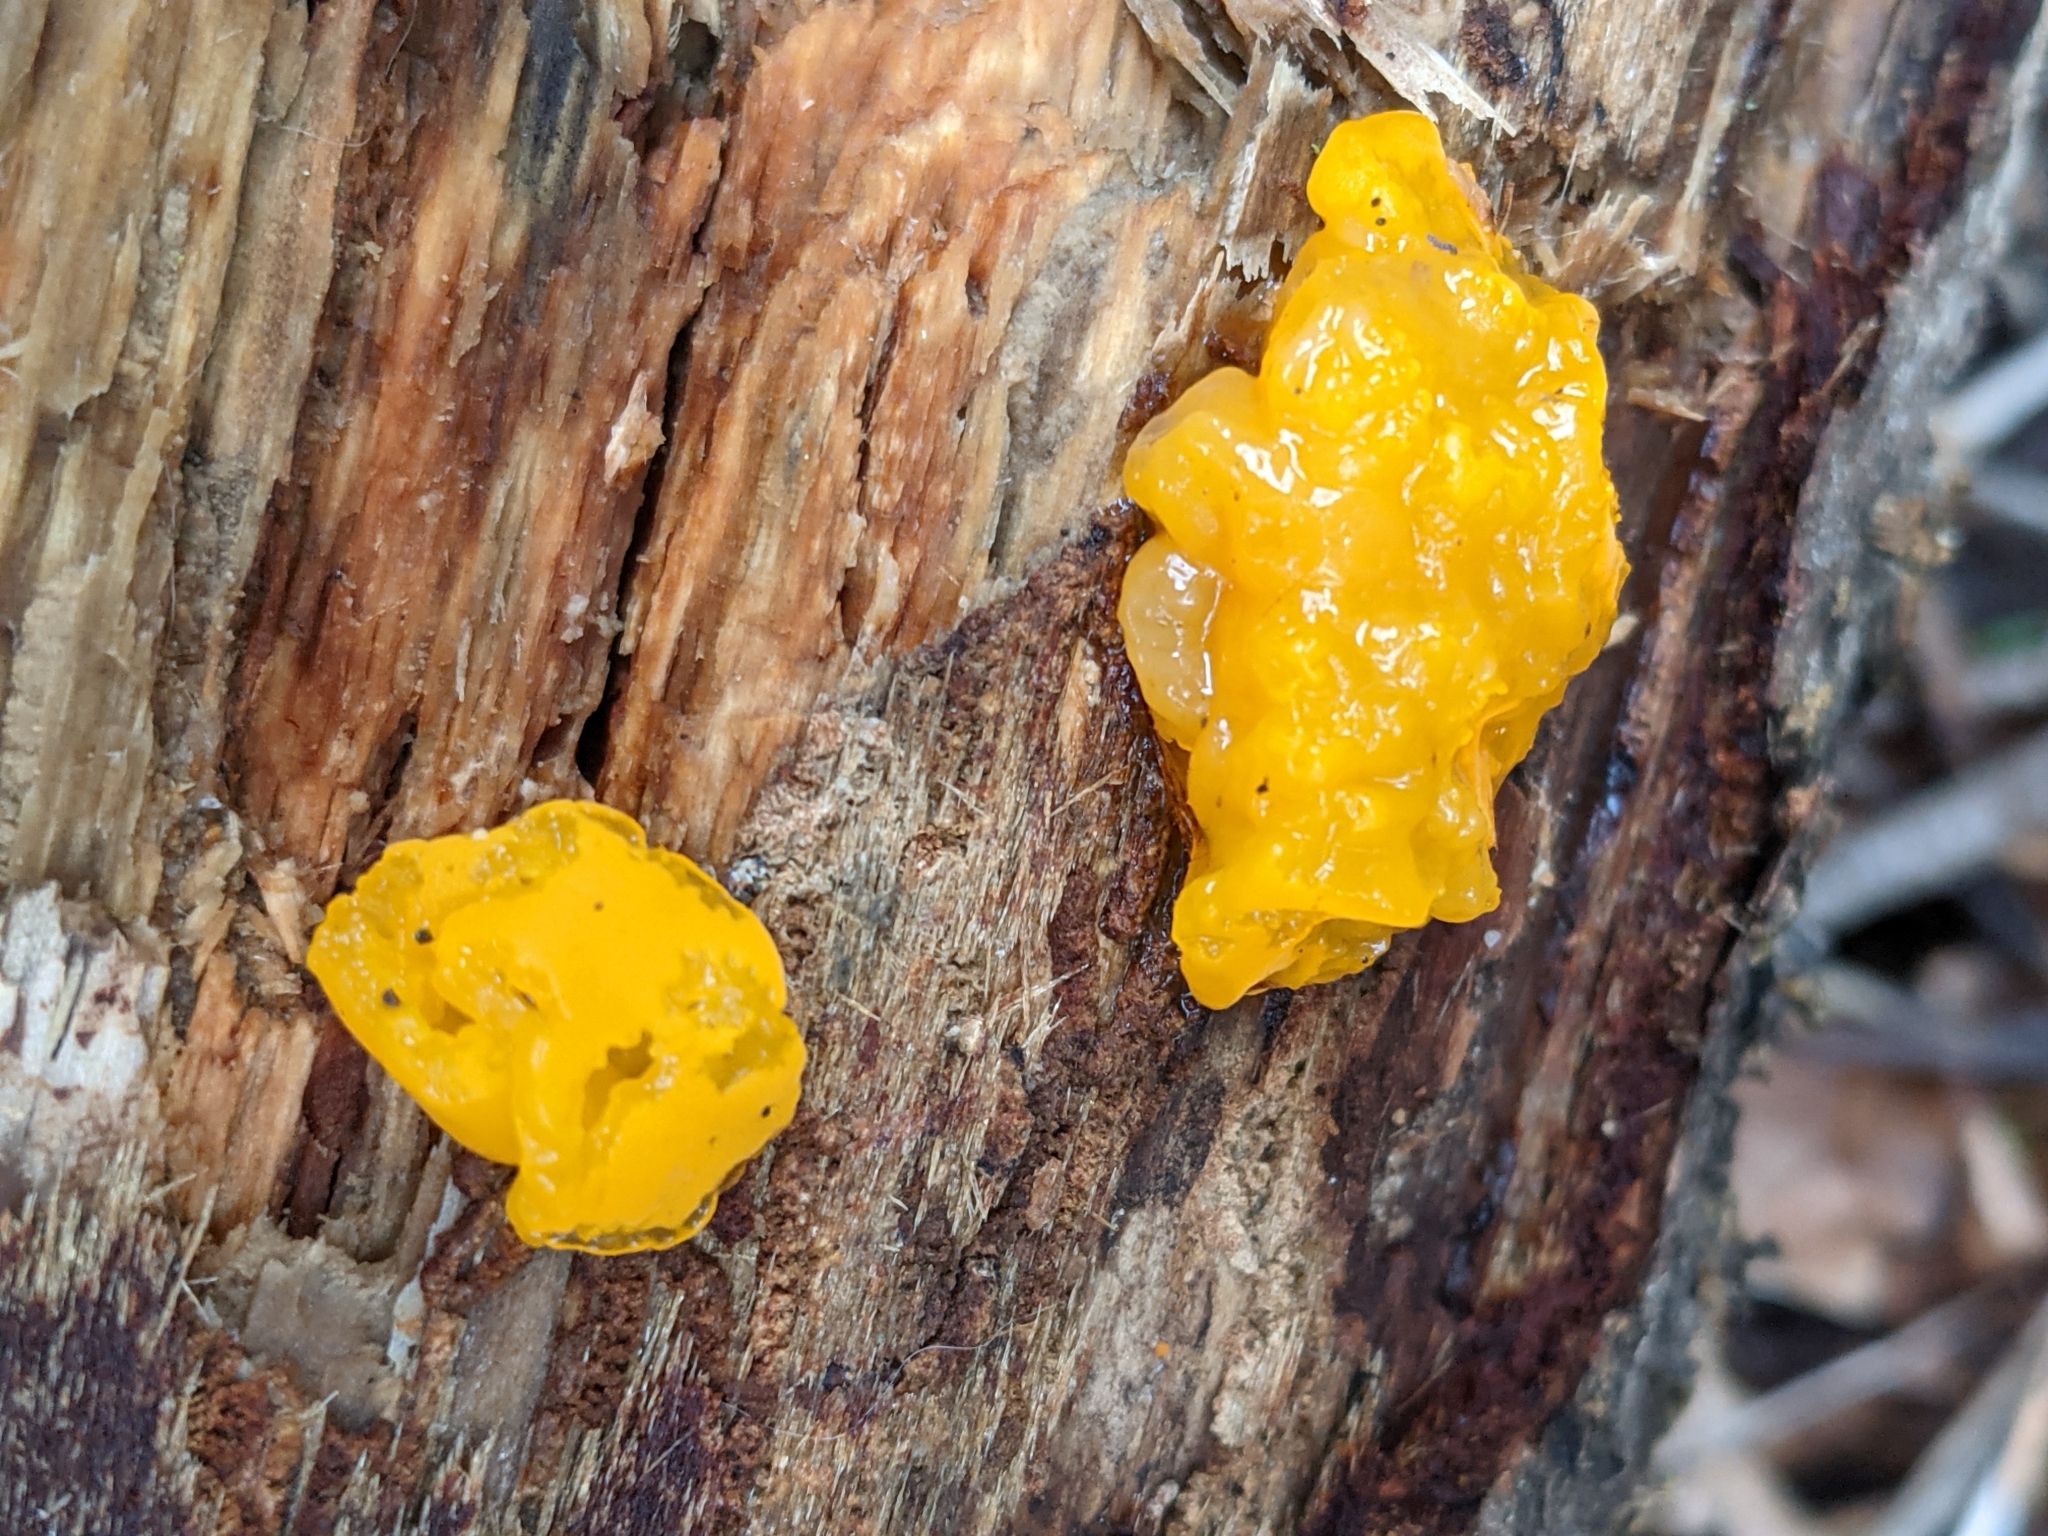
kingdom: Fungi
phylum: Basidiomycota
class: Dacrymycetes
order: Dacrymycetales
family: Dacrymycetaceae
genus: Dacrymyces
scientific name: Dacrymyces chrysospermus
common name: Orange jelly spot
